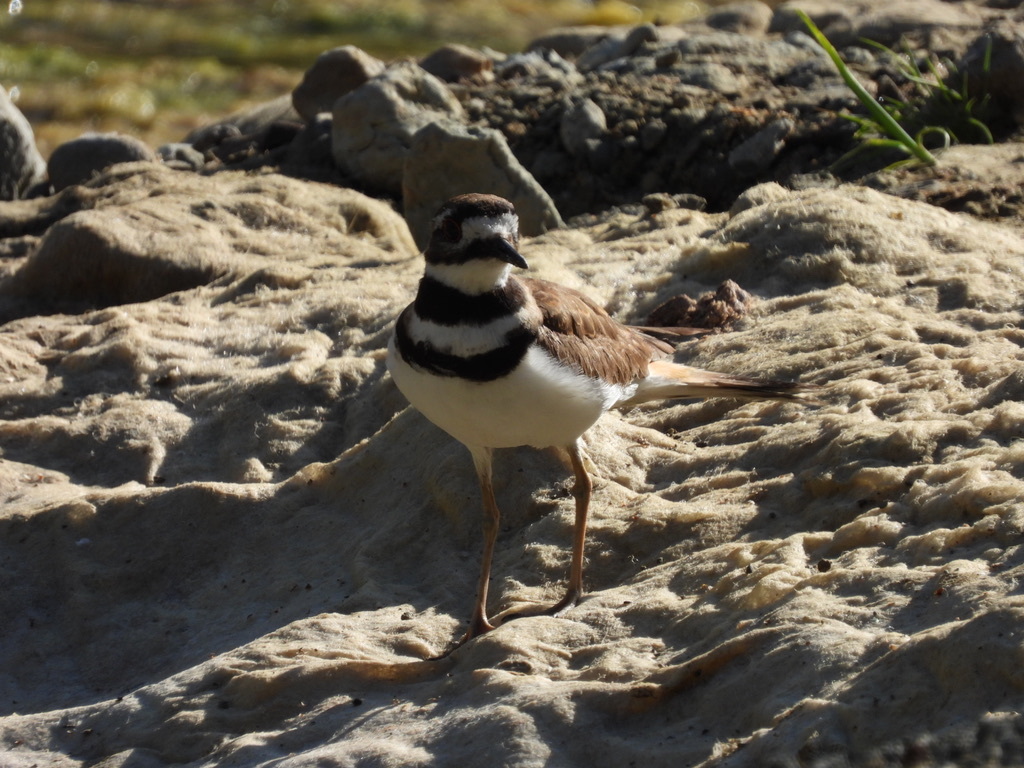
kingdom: Animalia
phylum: Chordata
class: Aves
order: Charadriiformes
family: Charadriidae
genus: Charadrius
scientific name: Charadrius vociferus
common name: Killdeer
